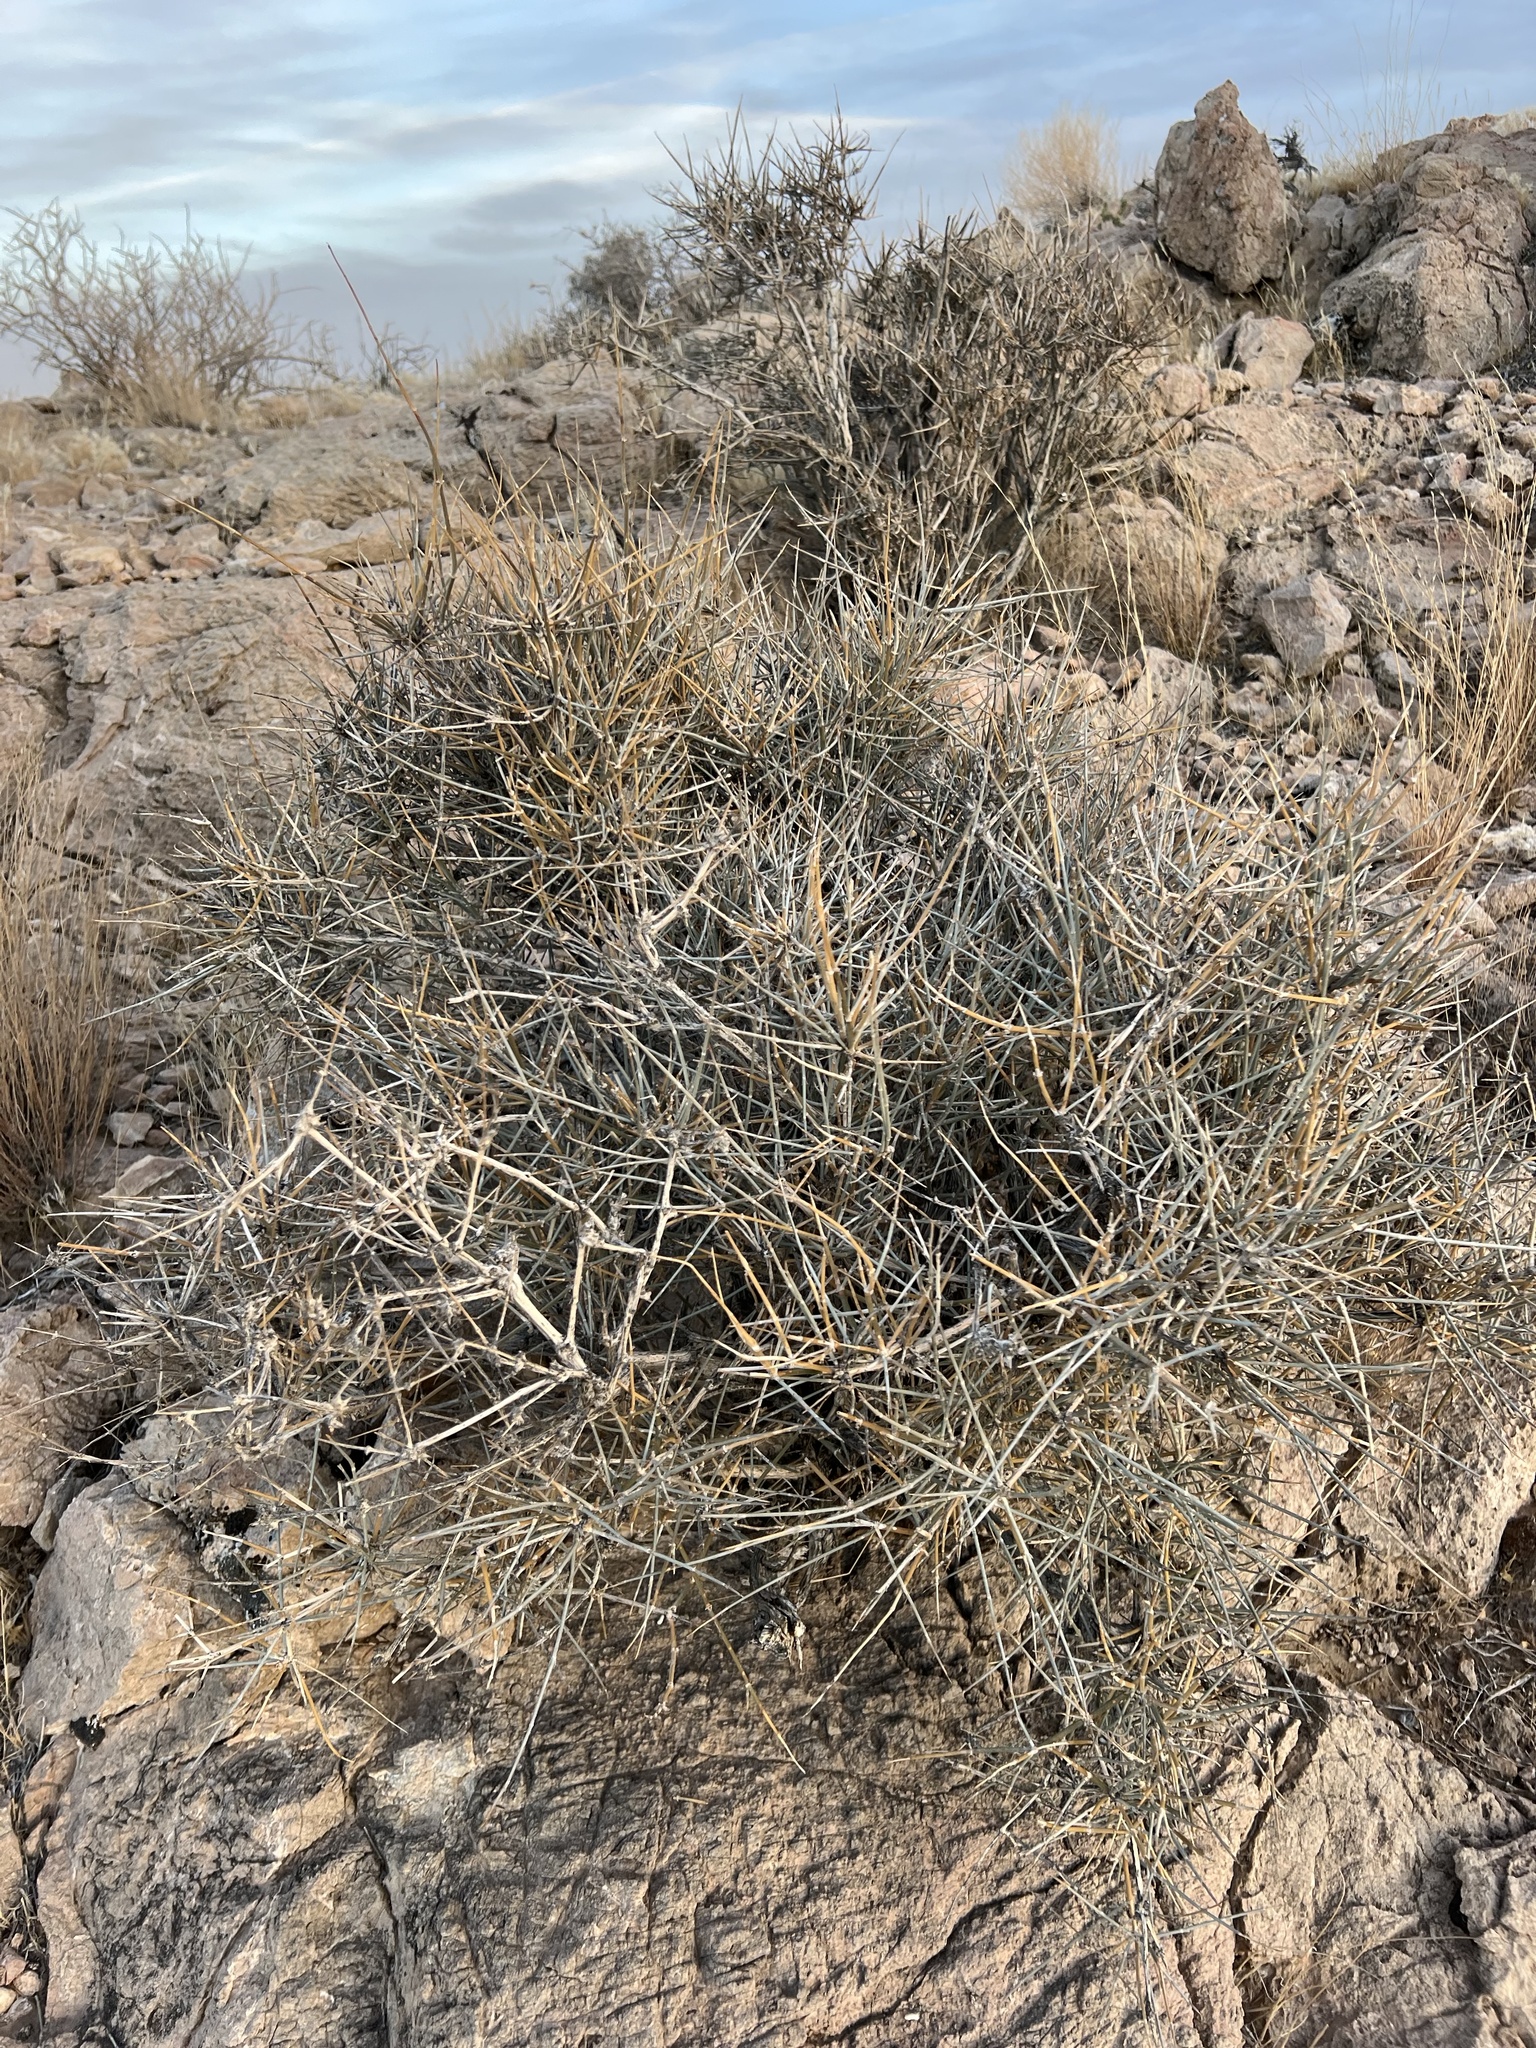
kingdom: Plantae
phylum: Tracheophyta
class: Gnetopsida
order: Ephedrales
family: Ephedraceae
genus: Ephedra
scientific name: Ephedra nevadensis
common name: Gray ephedra
